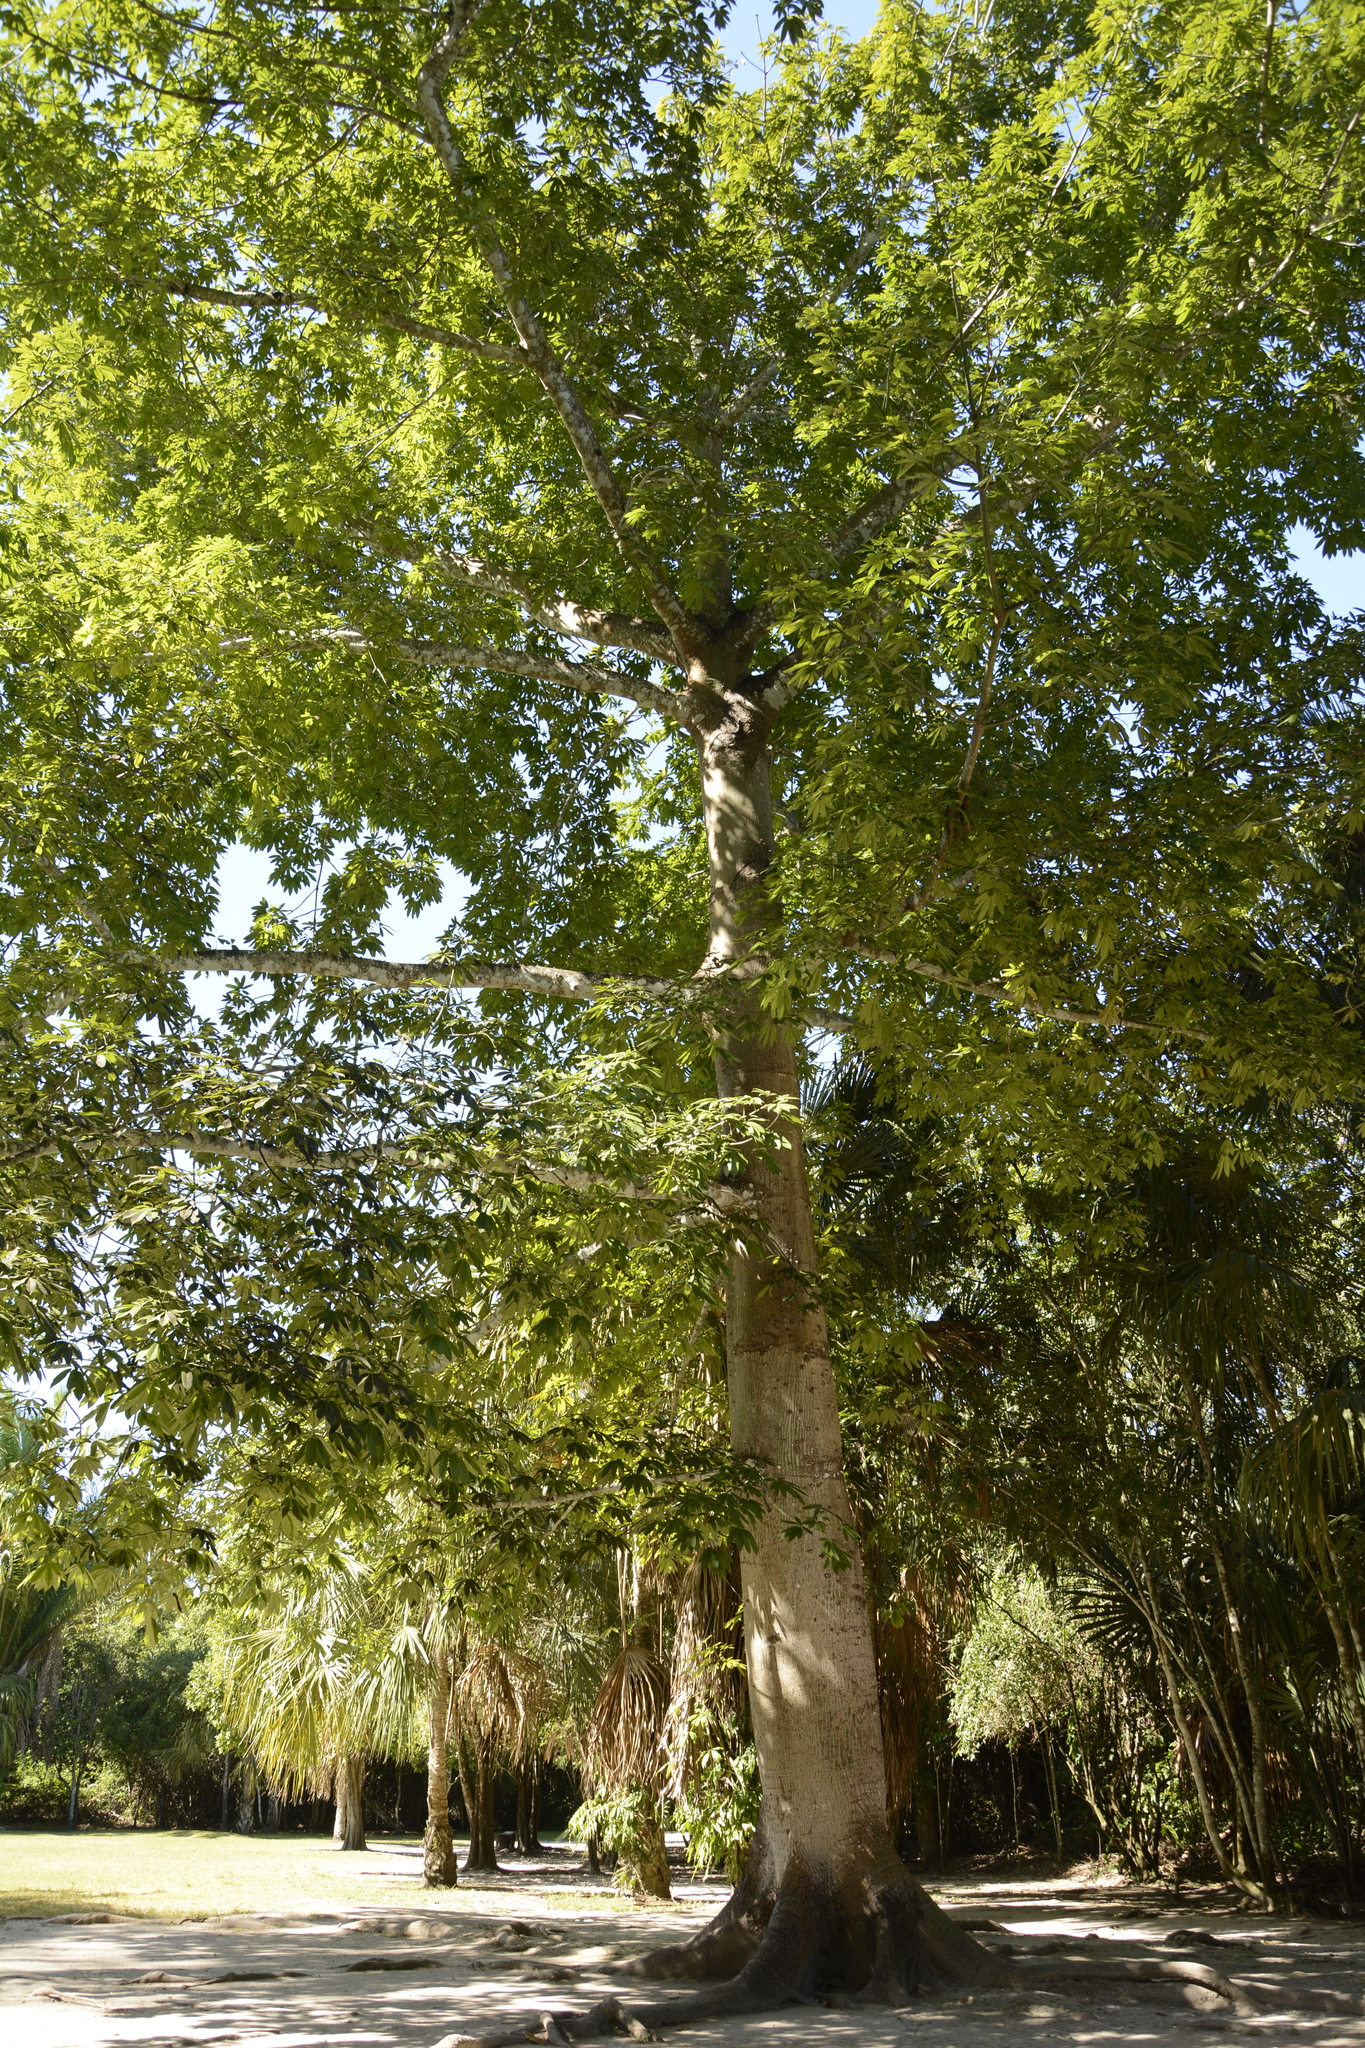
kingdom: Plantae
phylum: Tracheophyta
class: Magnoliopsida
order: Malvales
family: Malvaceae
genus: Ceiba
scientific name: Ceiba pentandra
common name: Kapok
